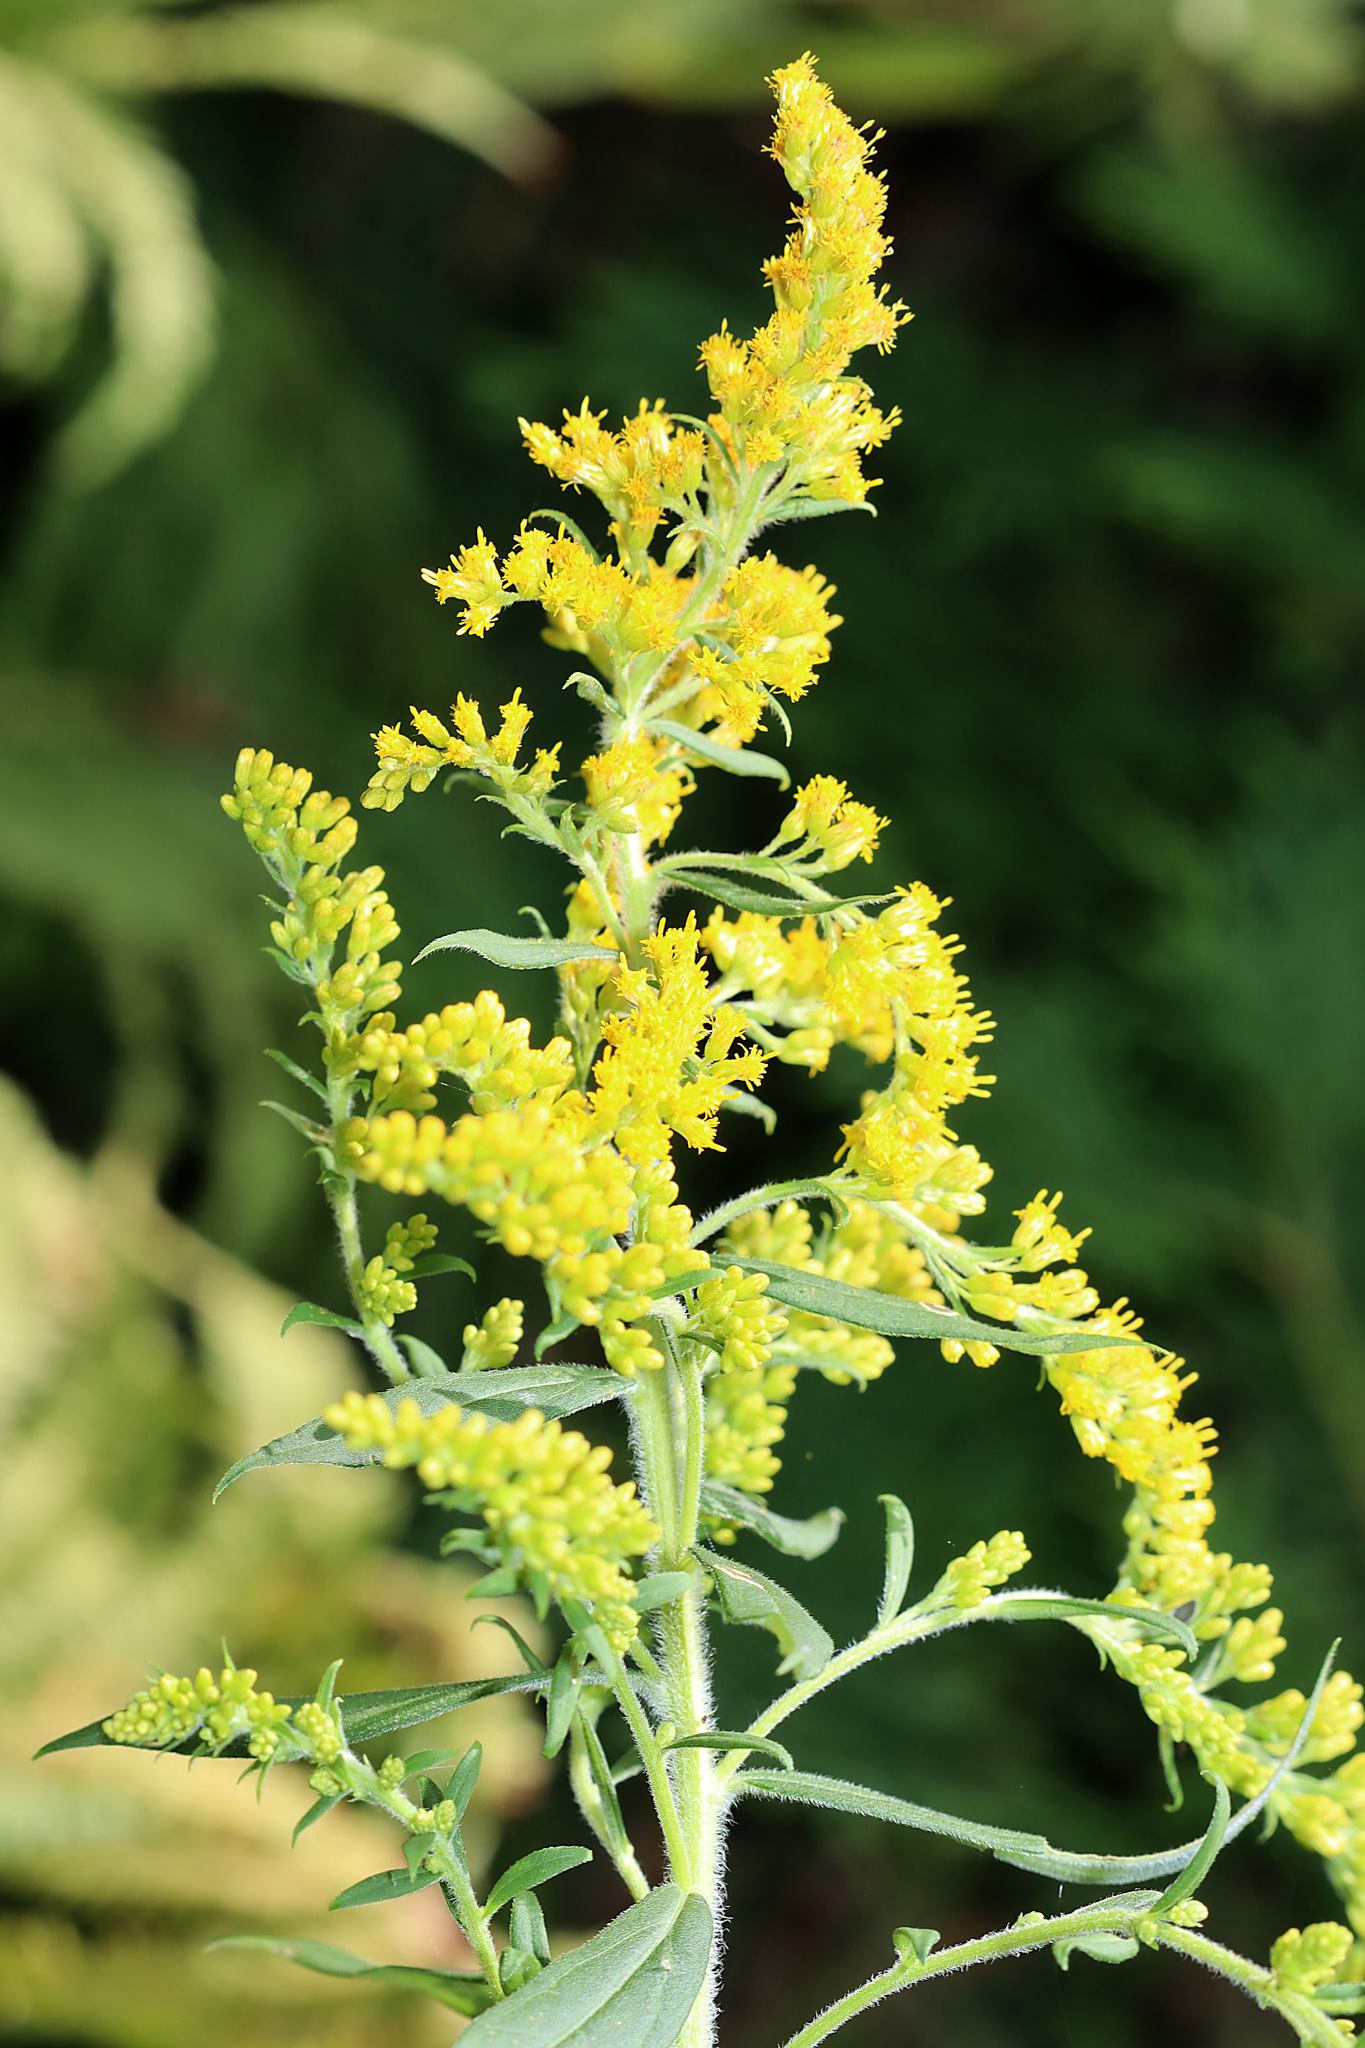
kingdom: Plantae
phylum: Tracheophyta
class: Magnoliopsida
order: Asterales
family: Asteraceae
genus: Solidago
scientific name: Solidago altissima
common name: Late goldenrod
